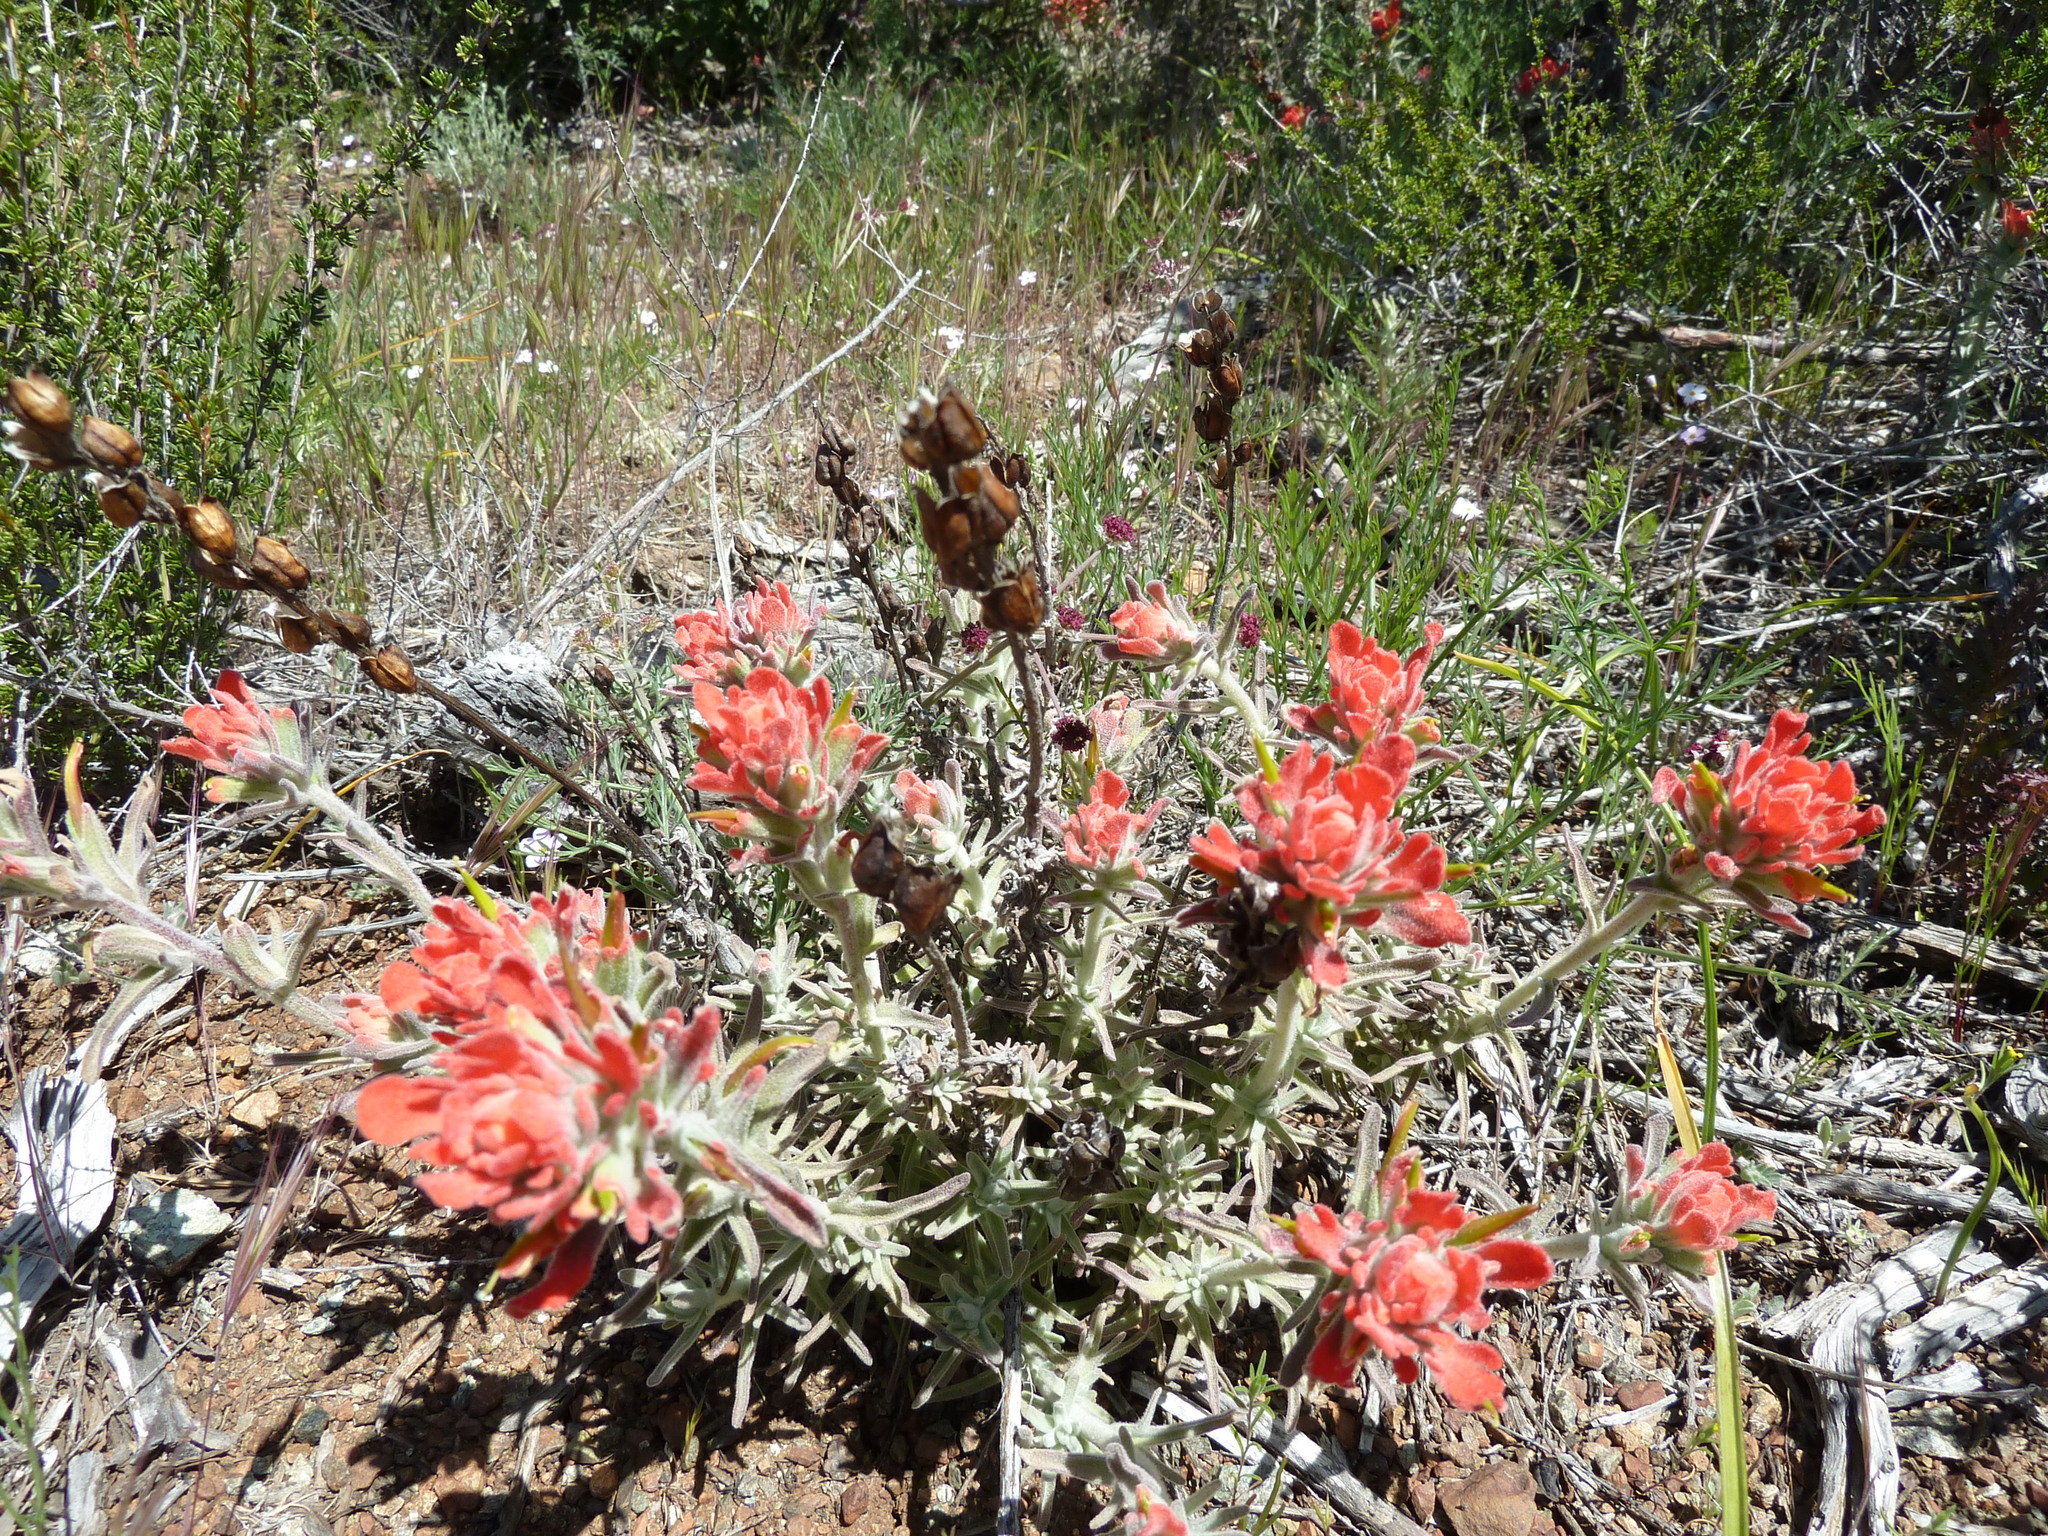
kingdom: Plantae
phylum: Tracheophyta
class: Magnoliopsida
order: Lamiales
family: Orobanchaceae
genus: Castilleja
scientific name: Castilleja foliolosa
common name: Woolly indian paintbrush
